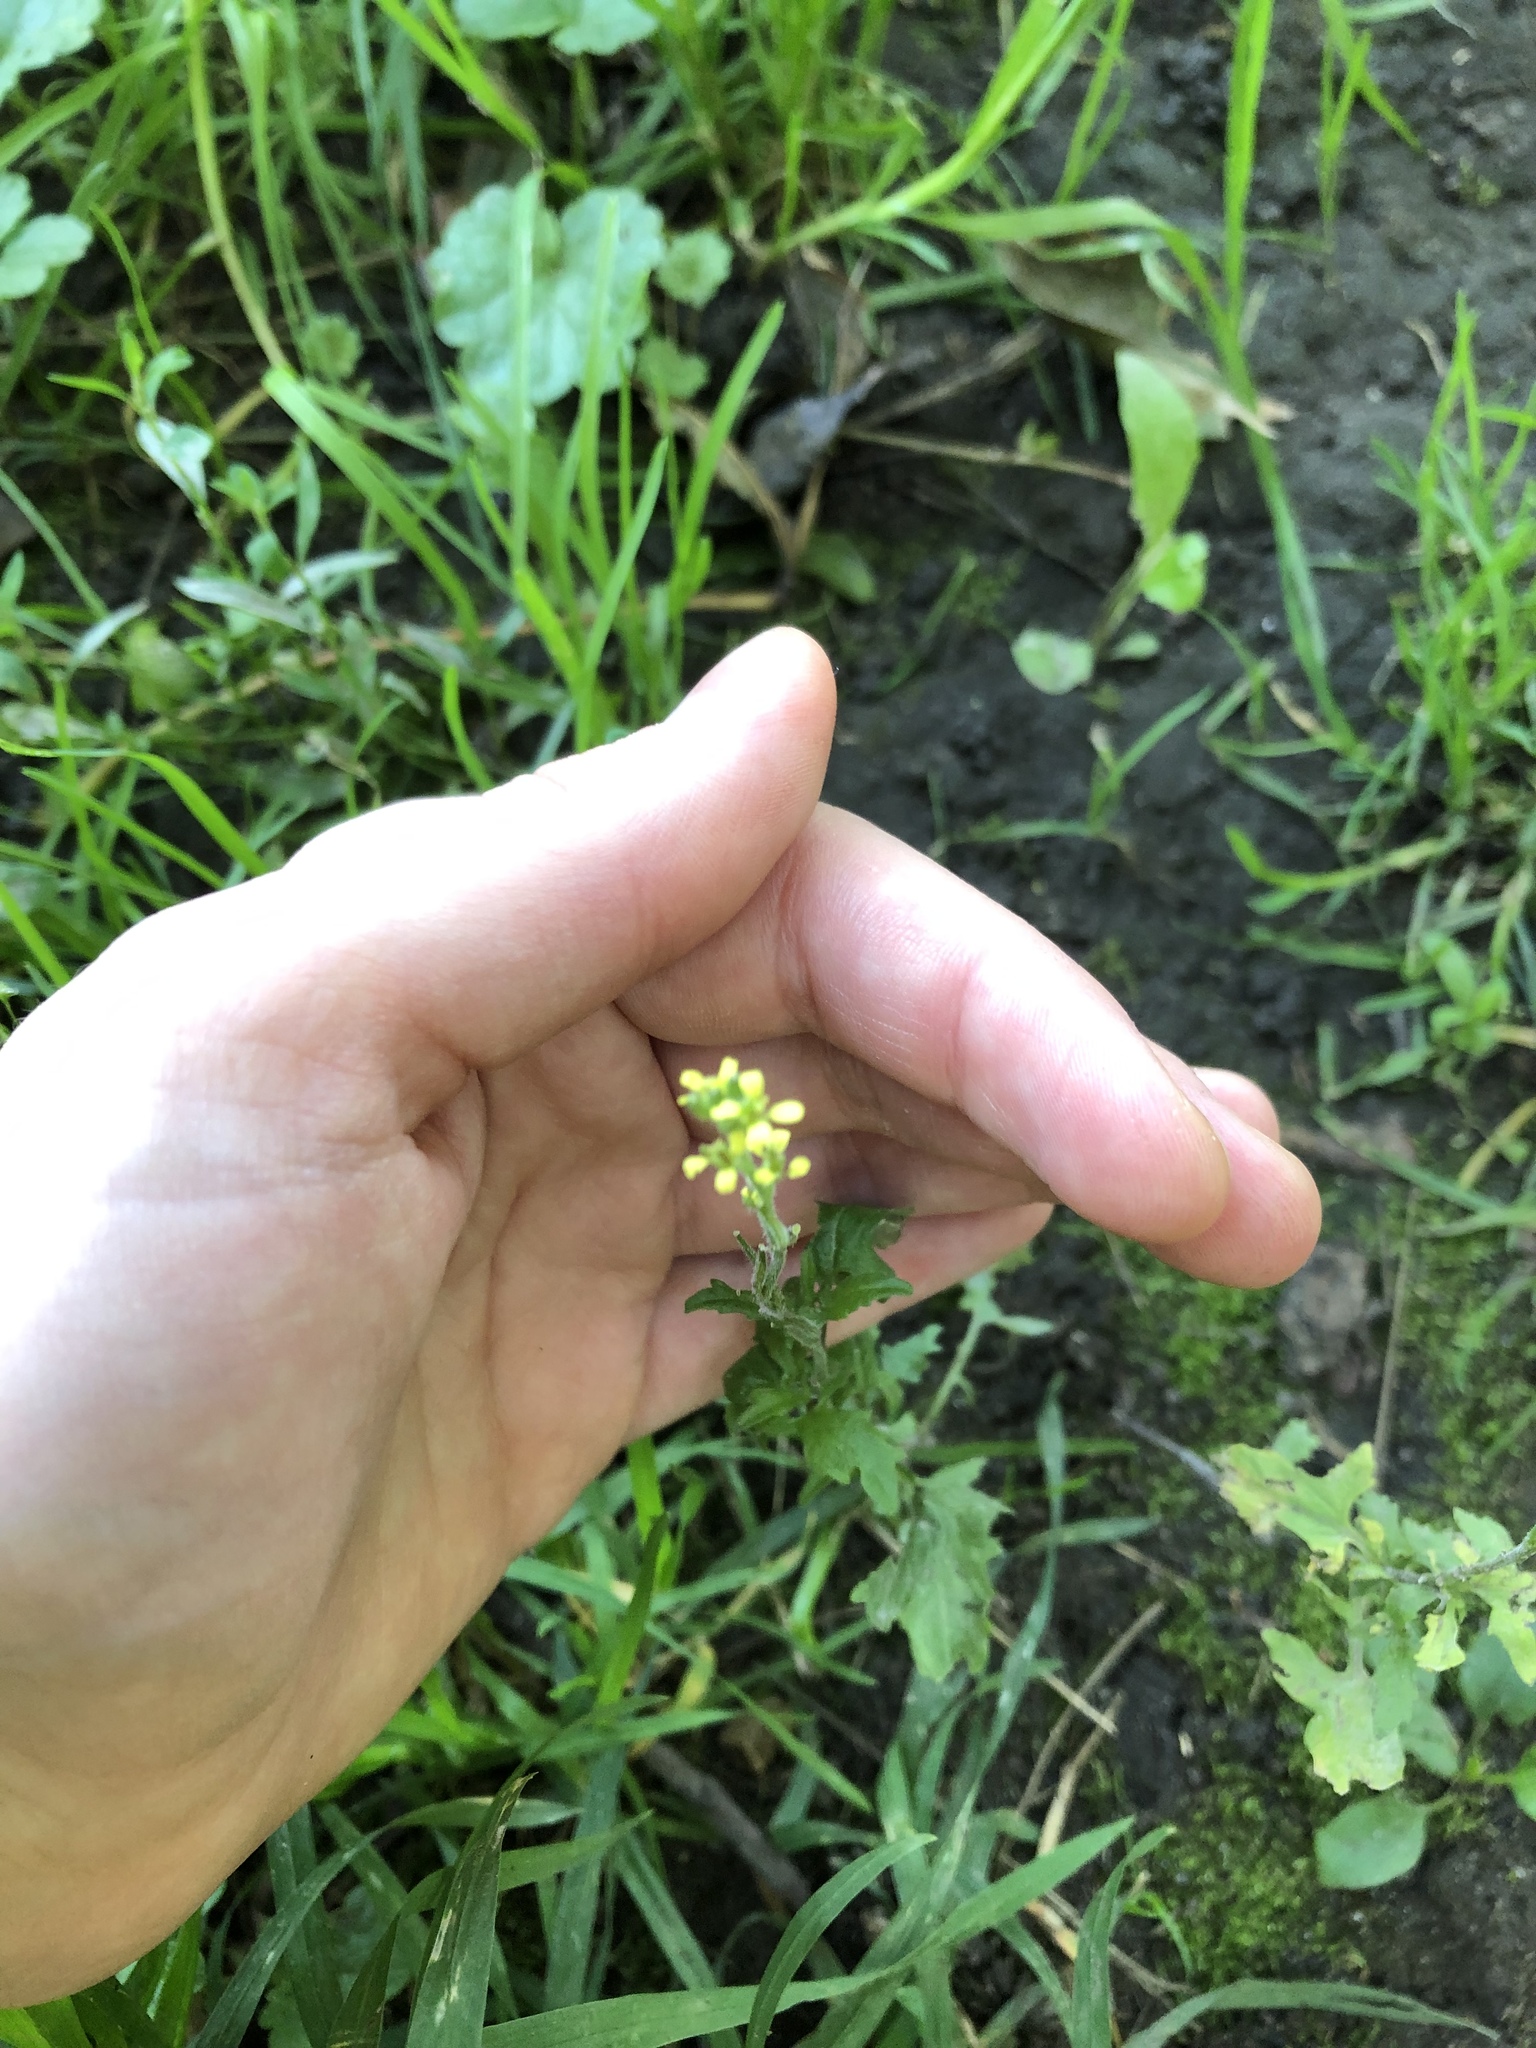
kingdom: Plantae
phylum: Tracheophyta
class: Magnoliopsida
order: Brassicales
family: Brassicaceae
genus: Sisymbrium
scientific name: Sisymbrium officinale
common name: Hedge mustard
